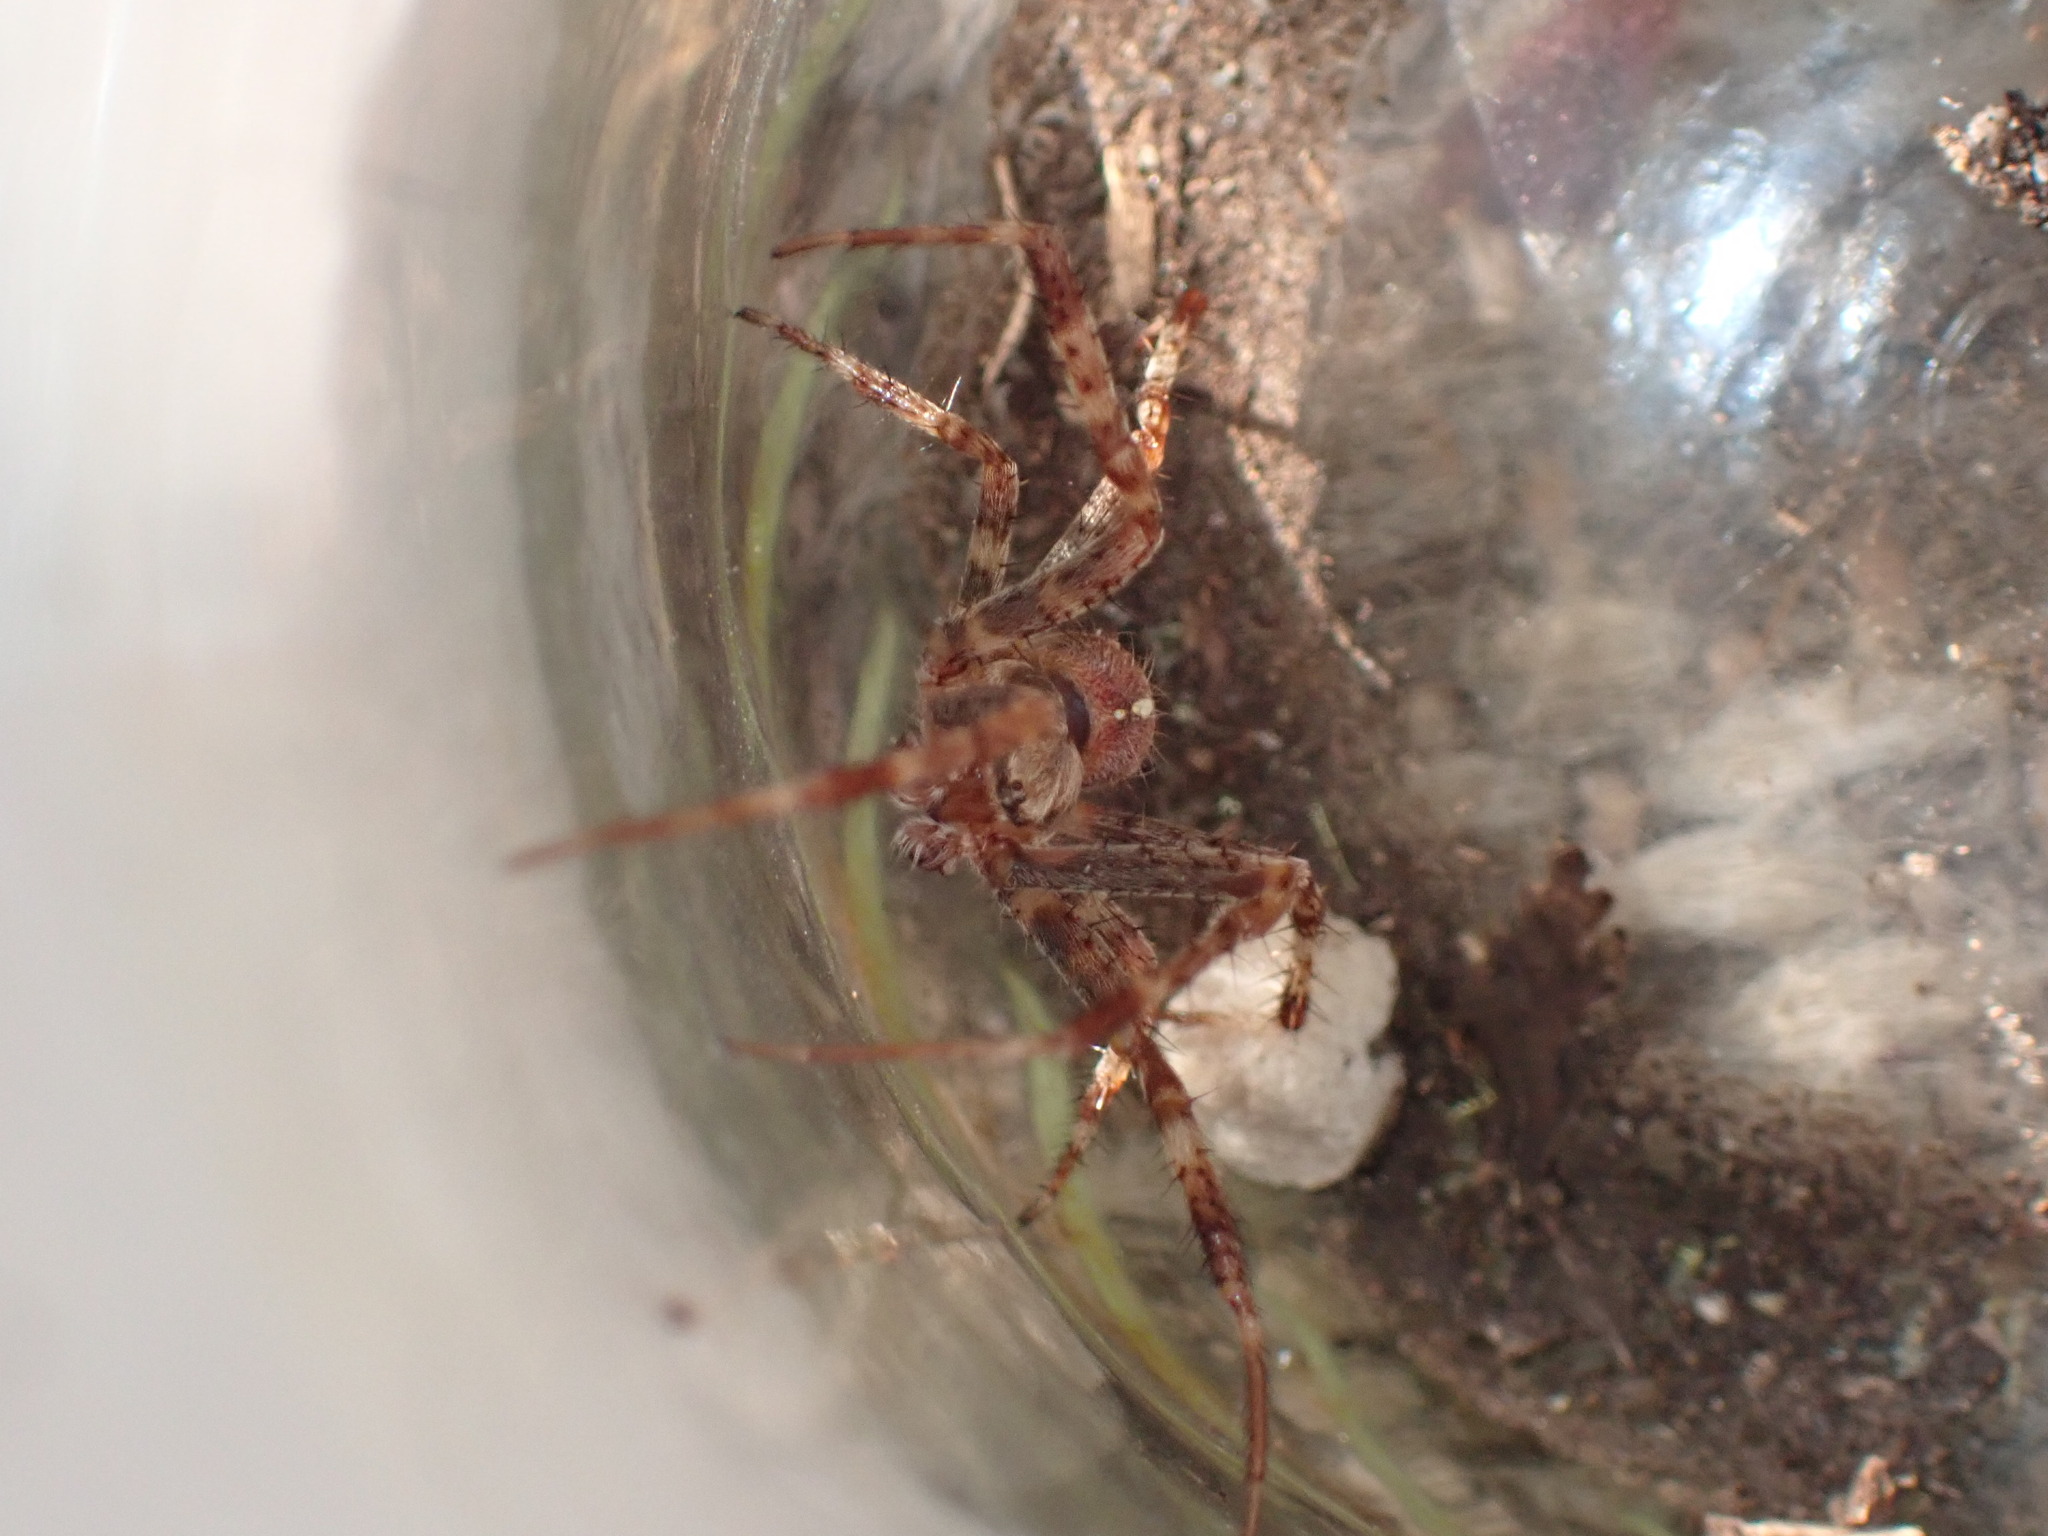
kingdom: Animalia
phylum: Arthropoda
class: Arachnida
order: Araneae
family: Araneidae
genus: Araneus
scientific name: Araneus diadematus
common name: Cross orbweaver
